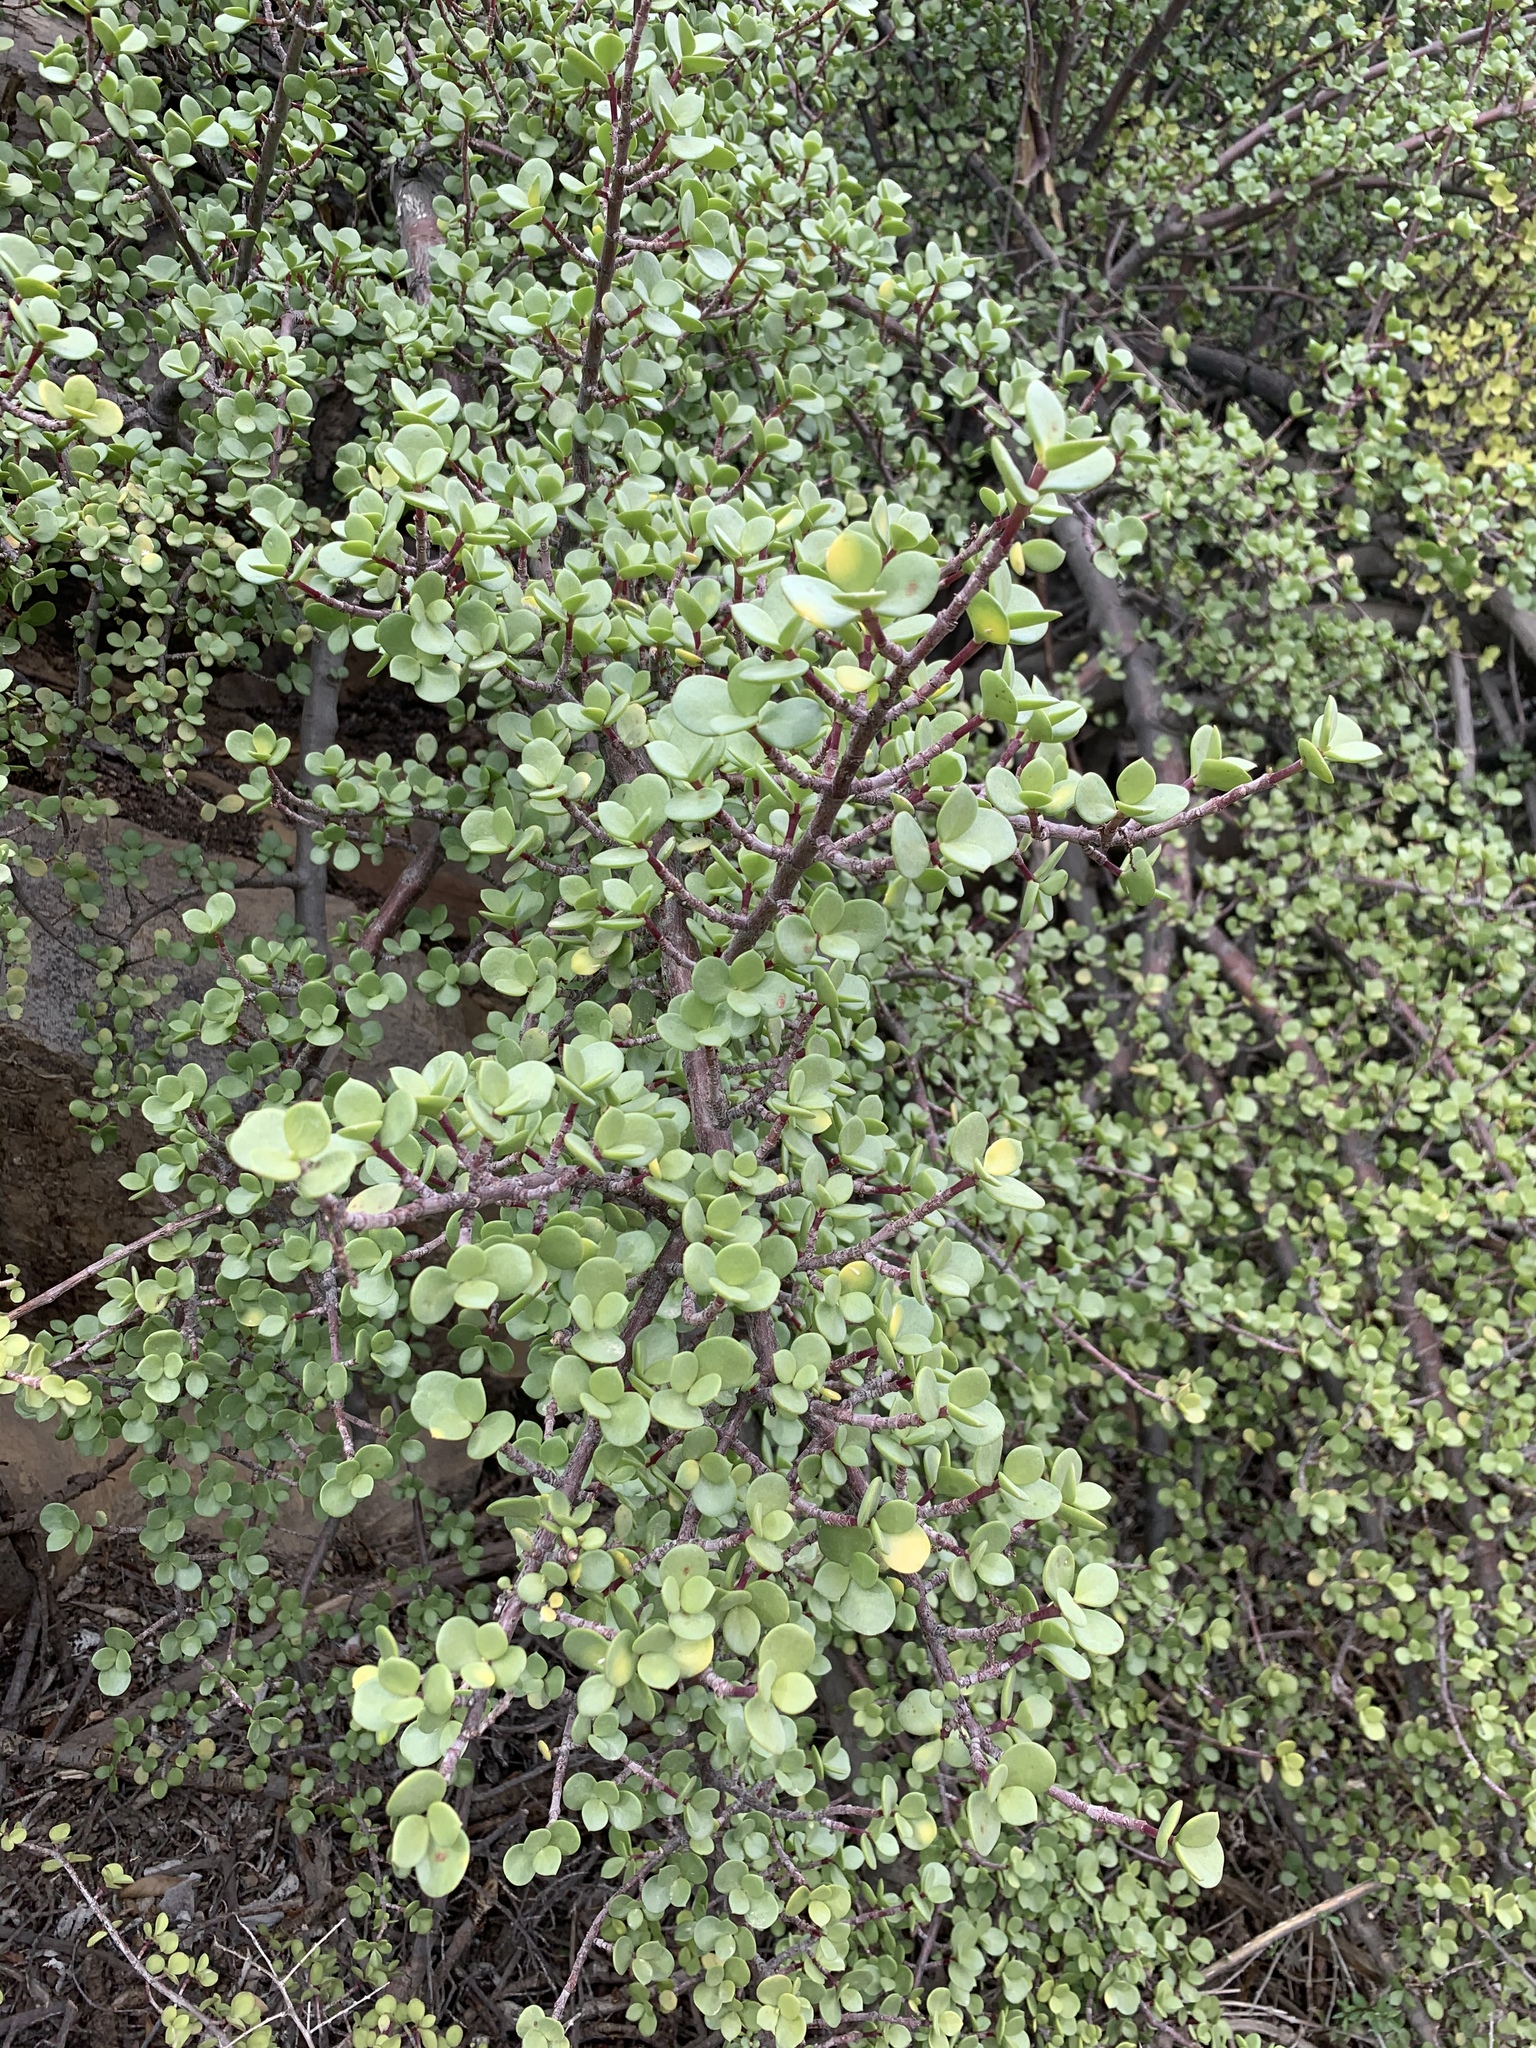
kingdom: Plantae
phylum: Tracheophyta
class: Magnoliopsida
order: Caryophyllales
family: Didiereaceae
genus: Portulacaria
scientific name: Portulacaria afra
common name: Elephant-bush
